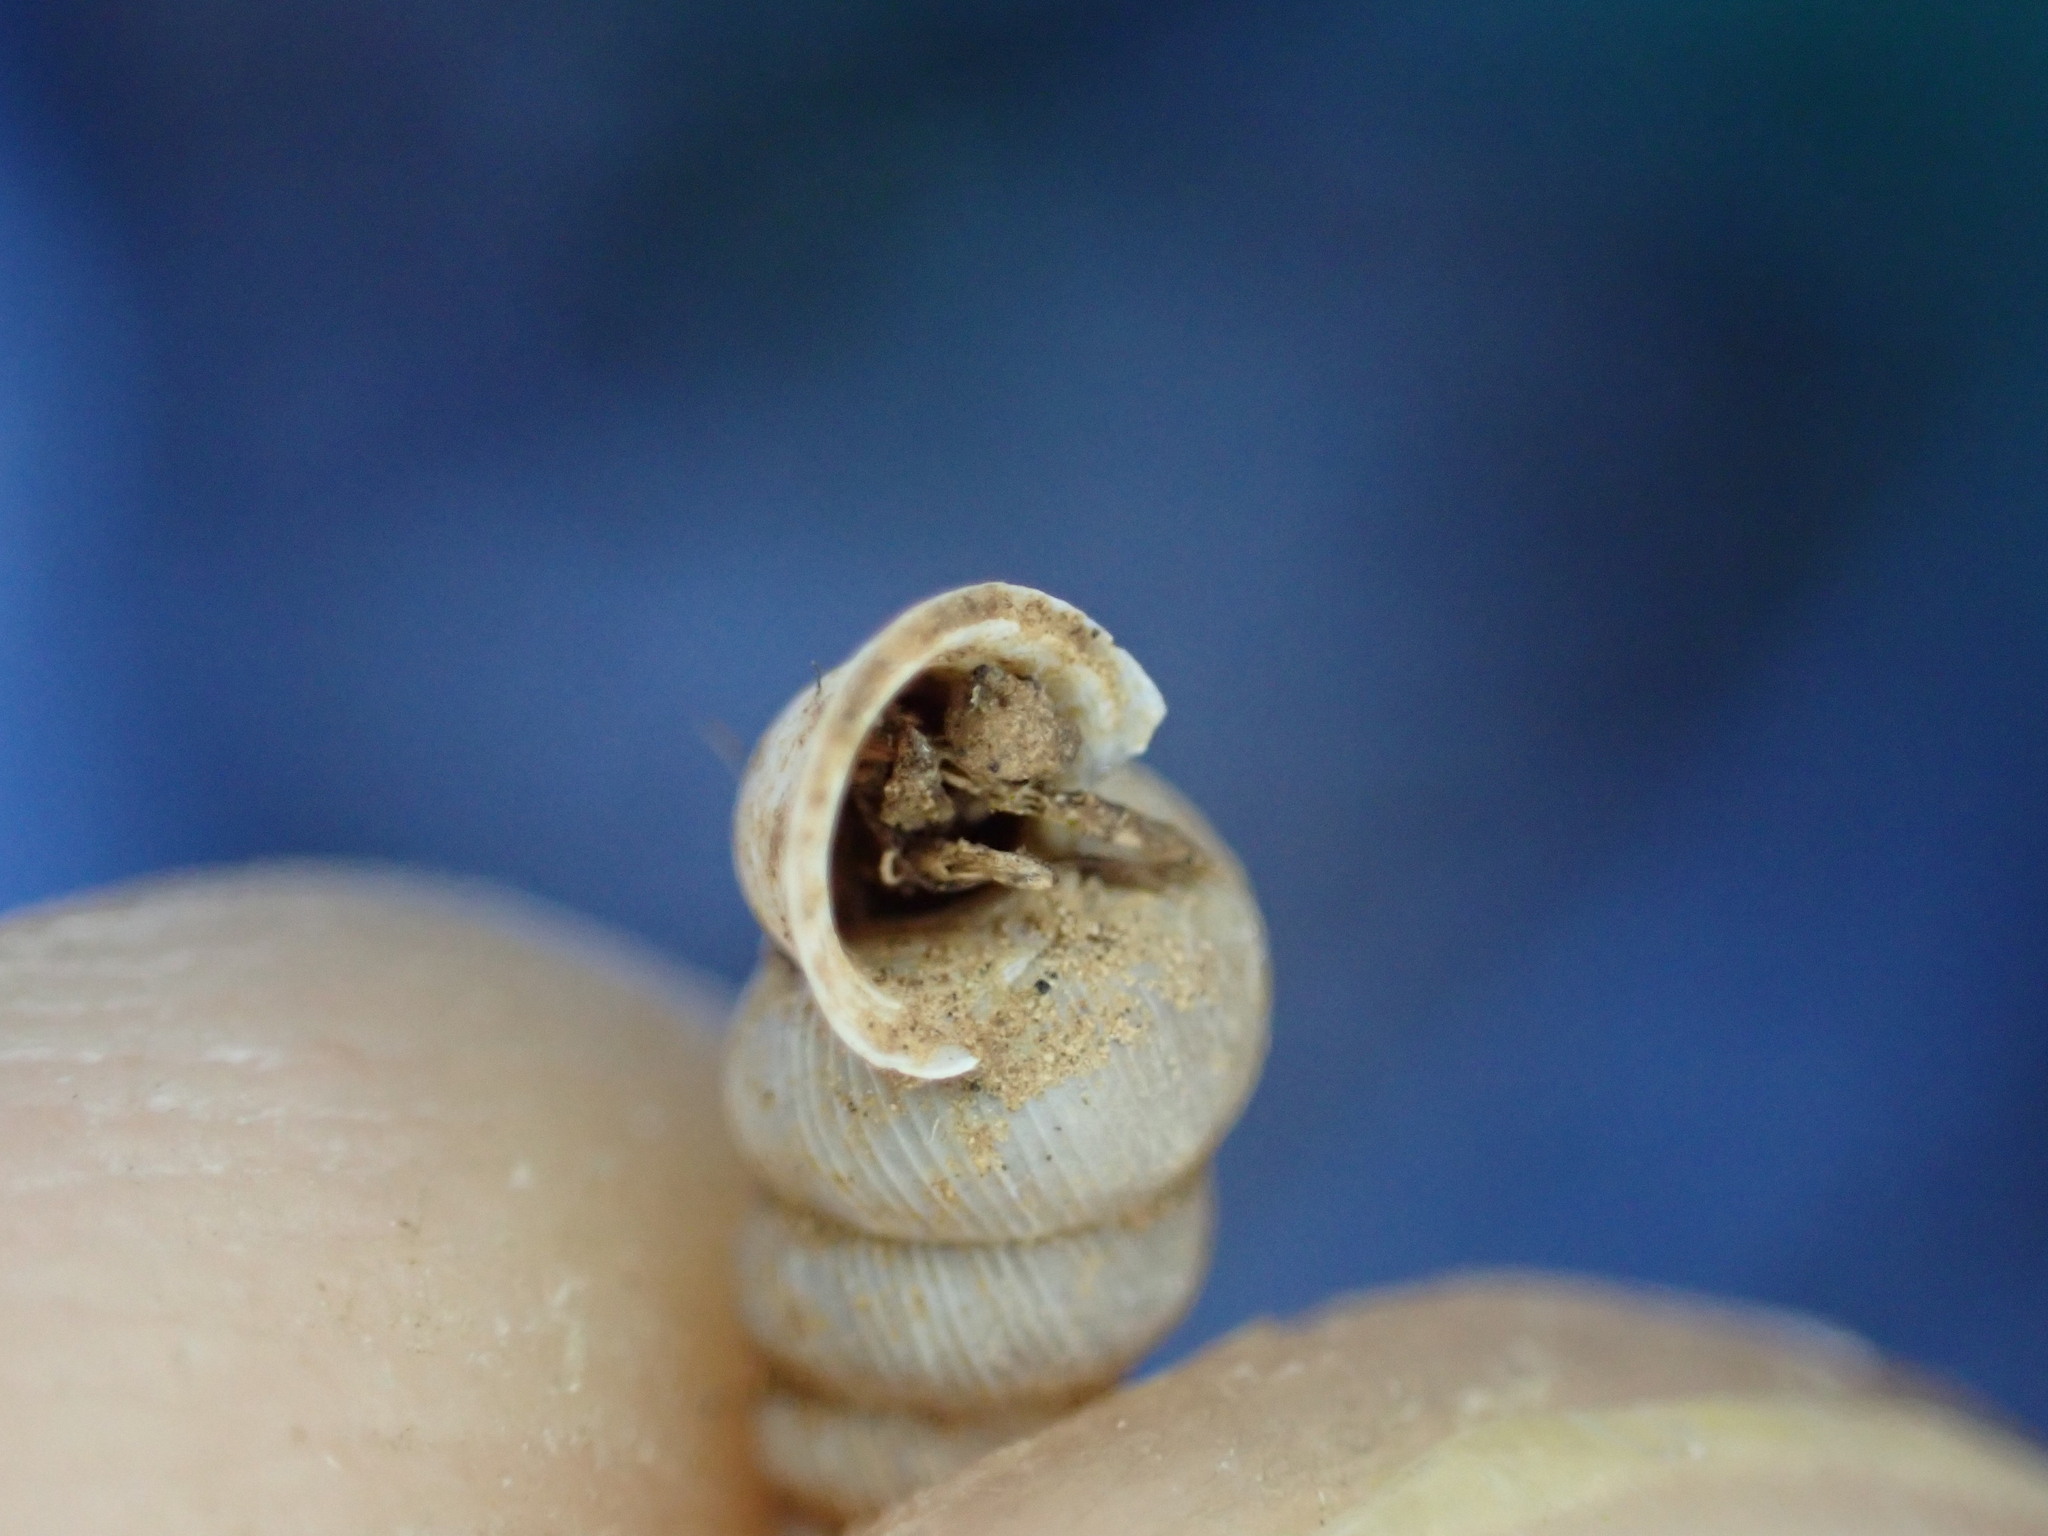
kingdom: Animalia
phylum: Mollusca
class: Gastropoda
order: Architaenioglossa
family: Cochlostomatidae
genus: Cochlostoma
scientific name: Cochlostoma patulum
